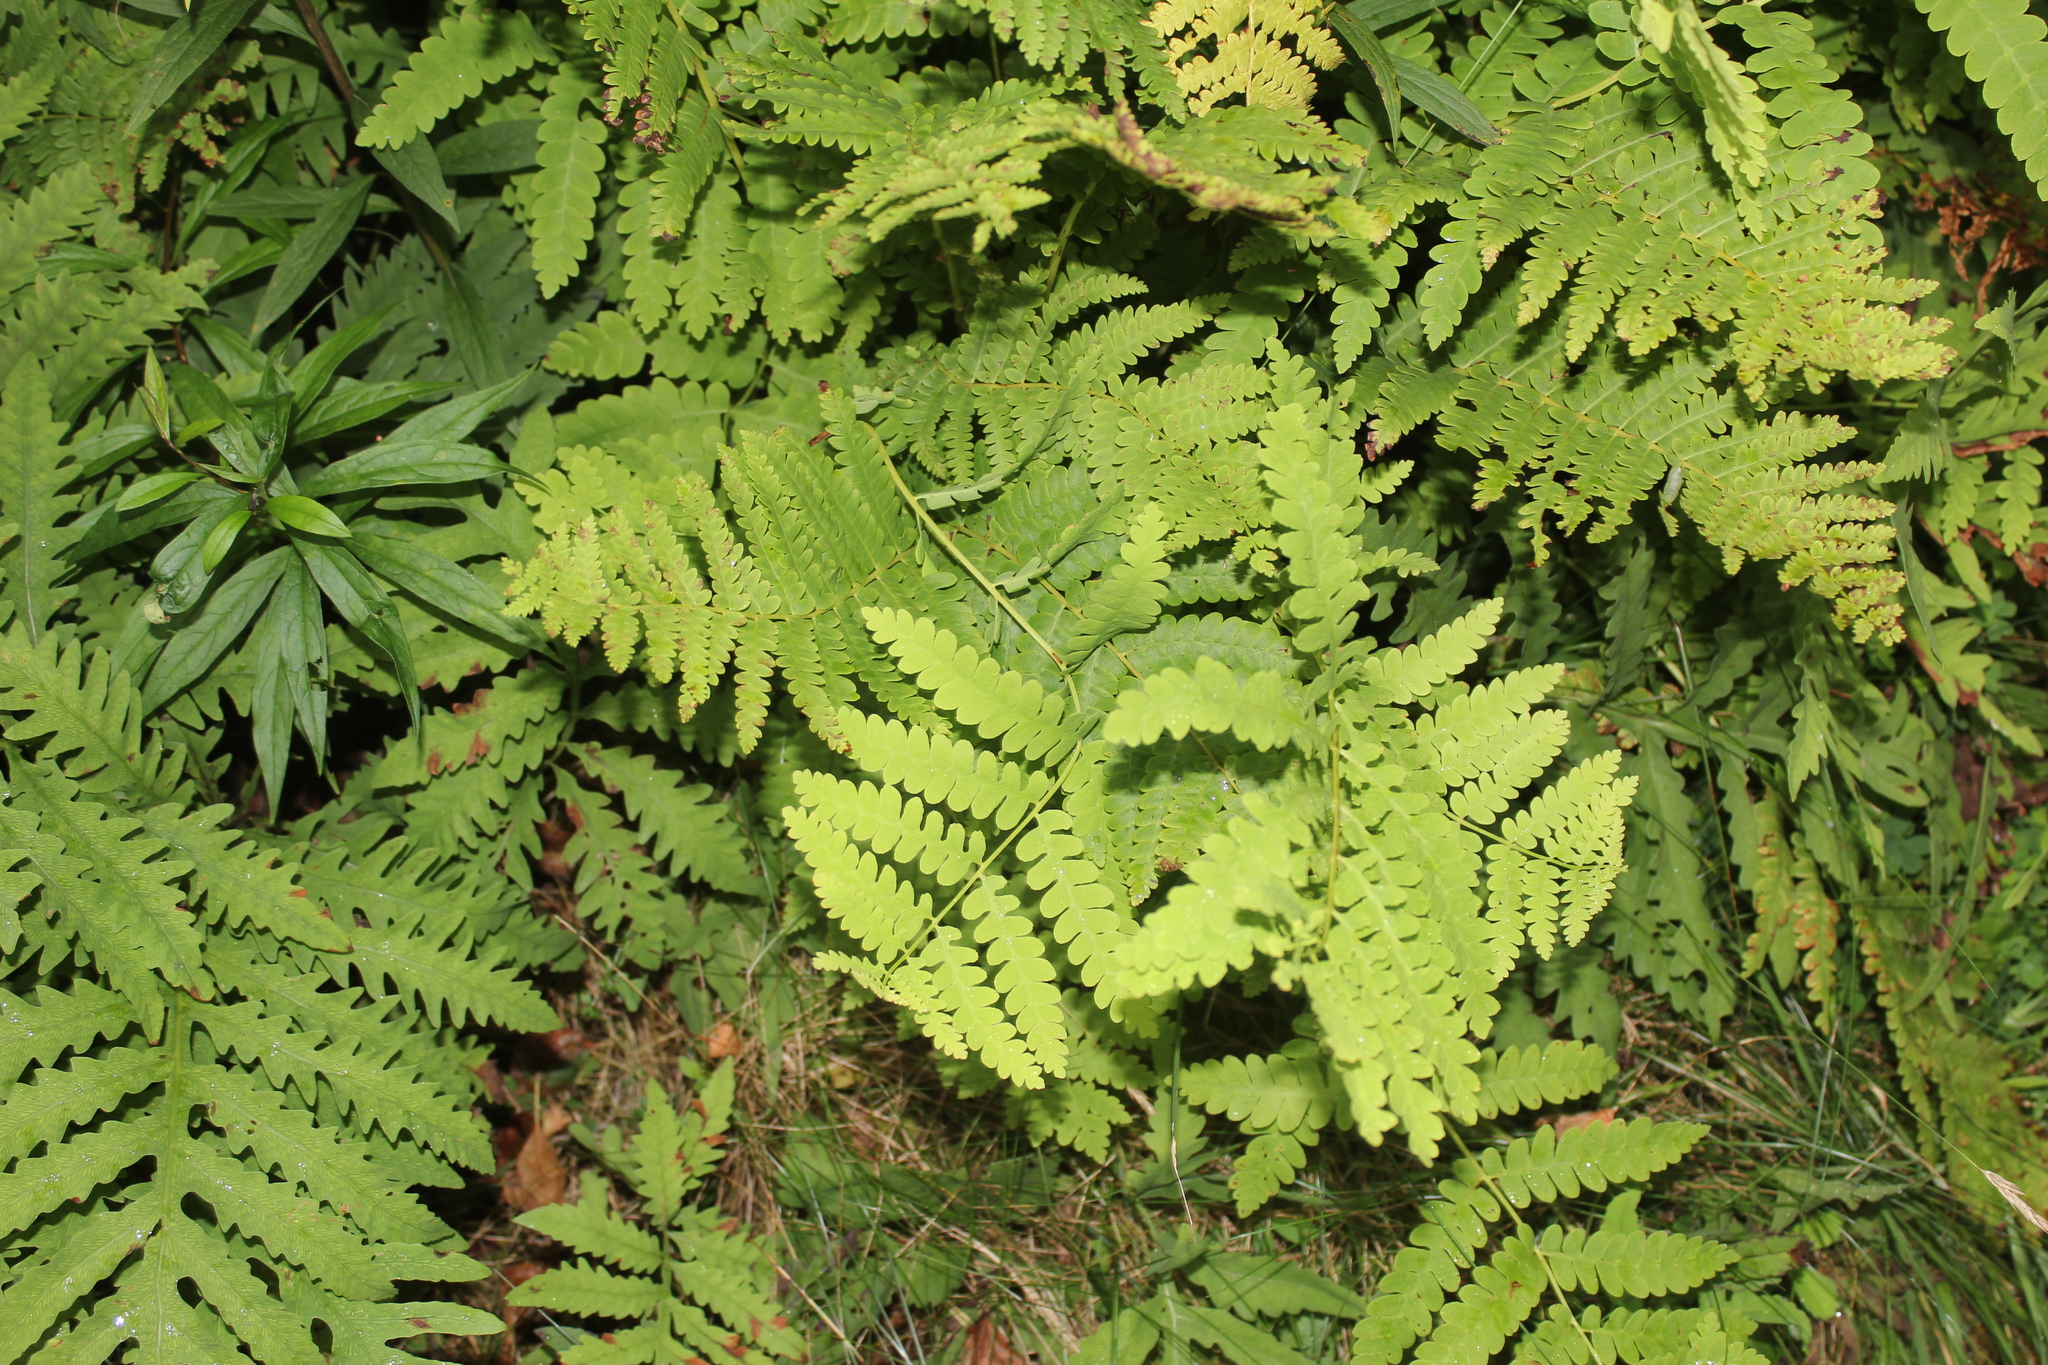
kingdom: Plantae
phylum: Tracheophyta
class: Polypodiopsida
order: Osmundales
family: Osmundaceae
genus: Claytosmunda
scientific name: Claytosmunda claytoniana
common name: Clayton's fern
